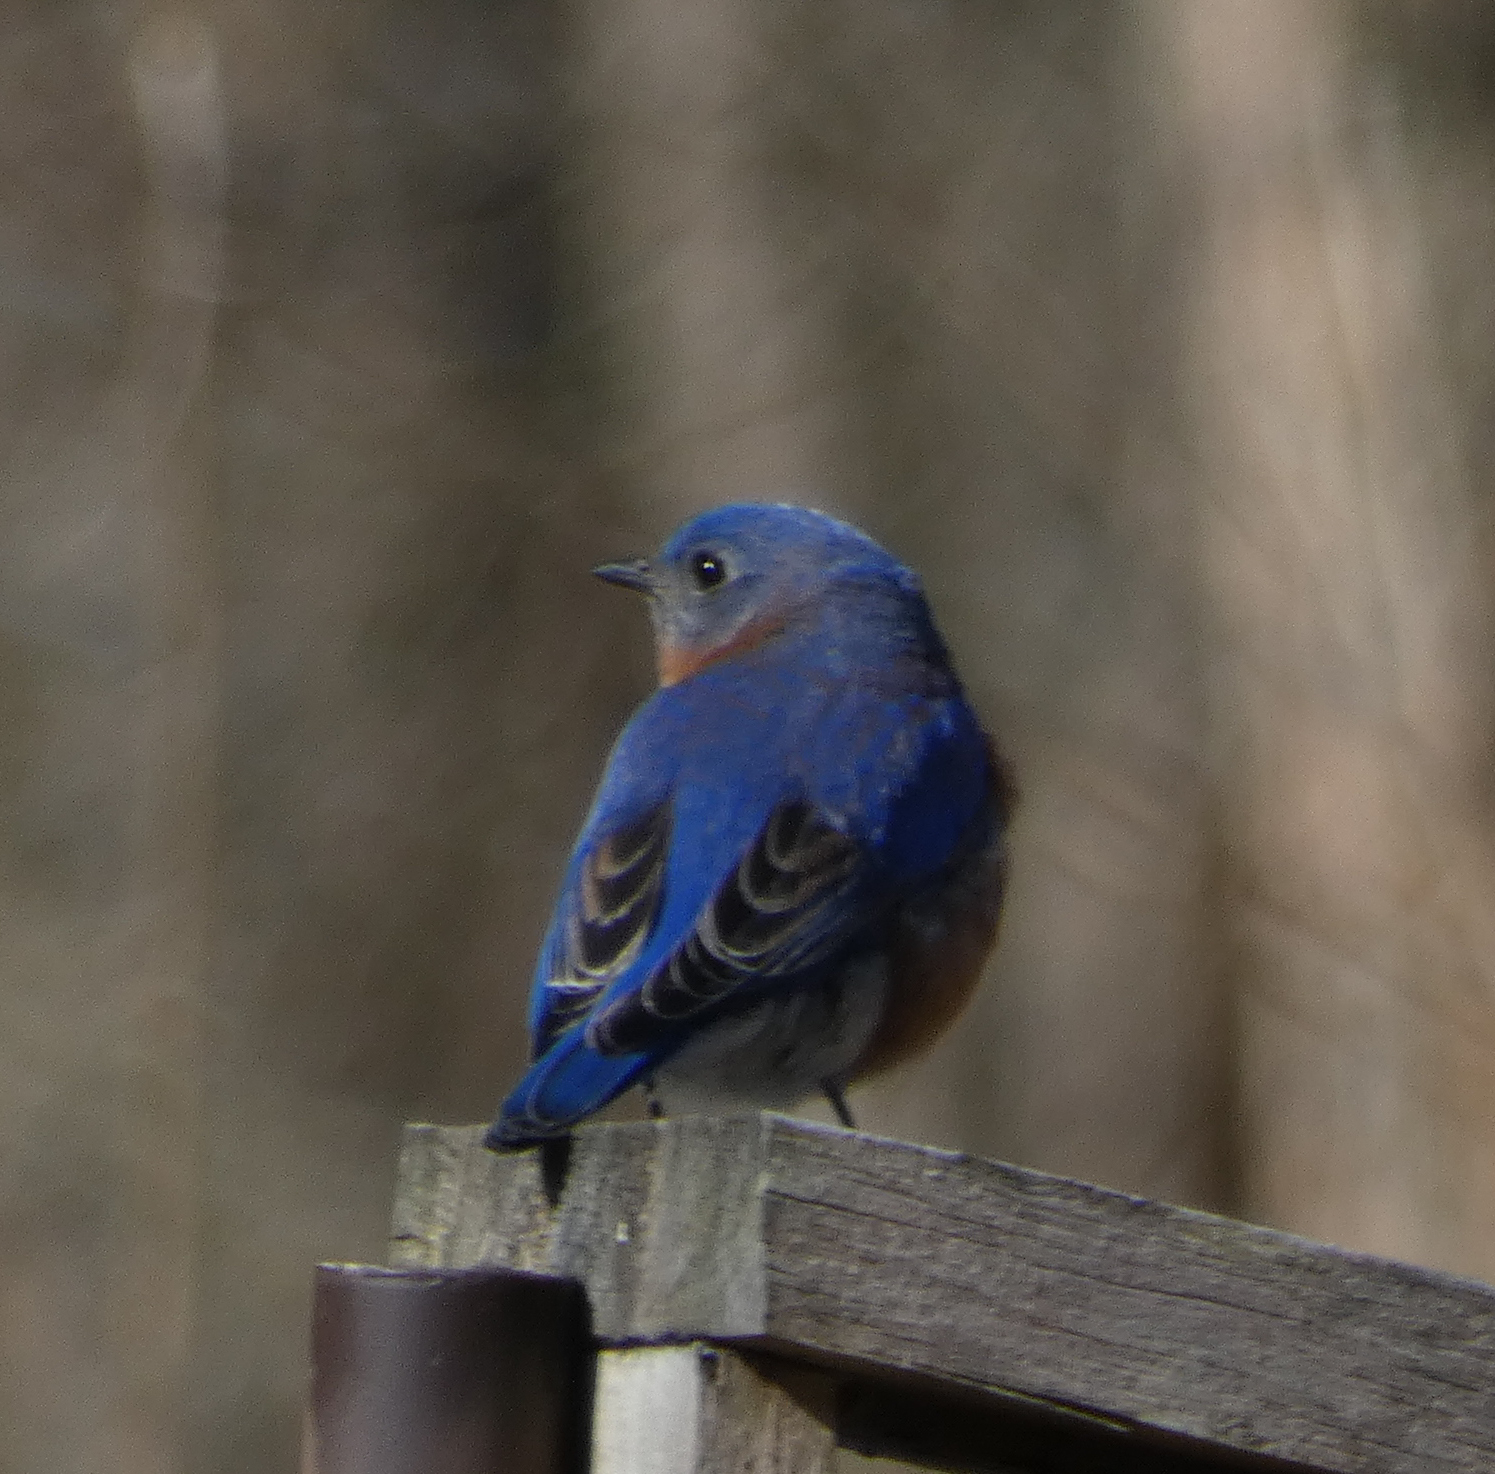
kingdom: Animalia
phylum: Chordata
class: Aves
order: Passeriformes
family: Turdidae
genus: Sialia
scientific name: Sialia sialis
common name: Eastern bluebird
